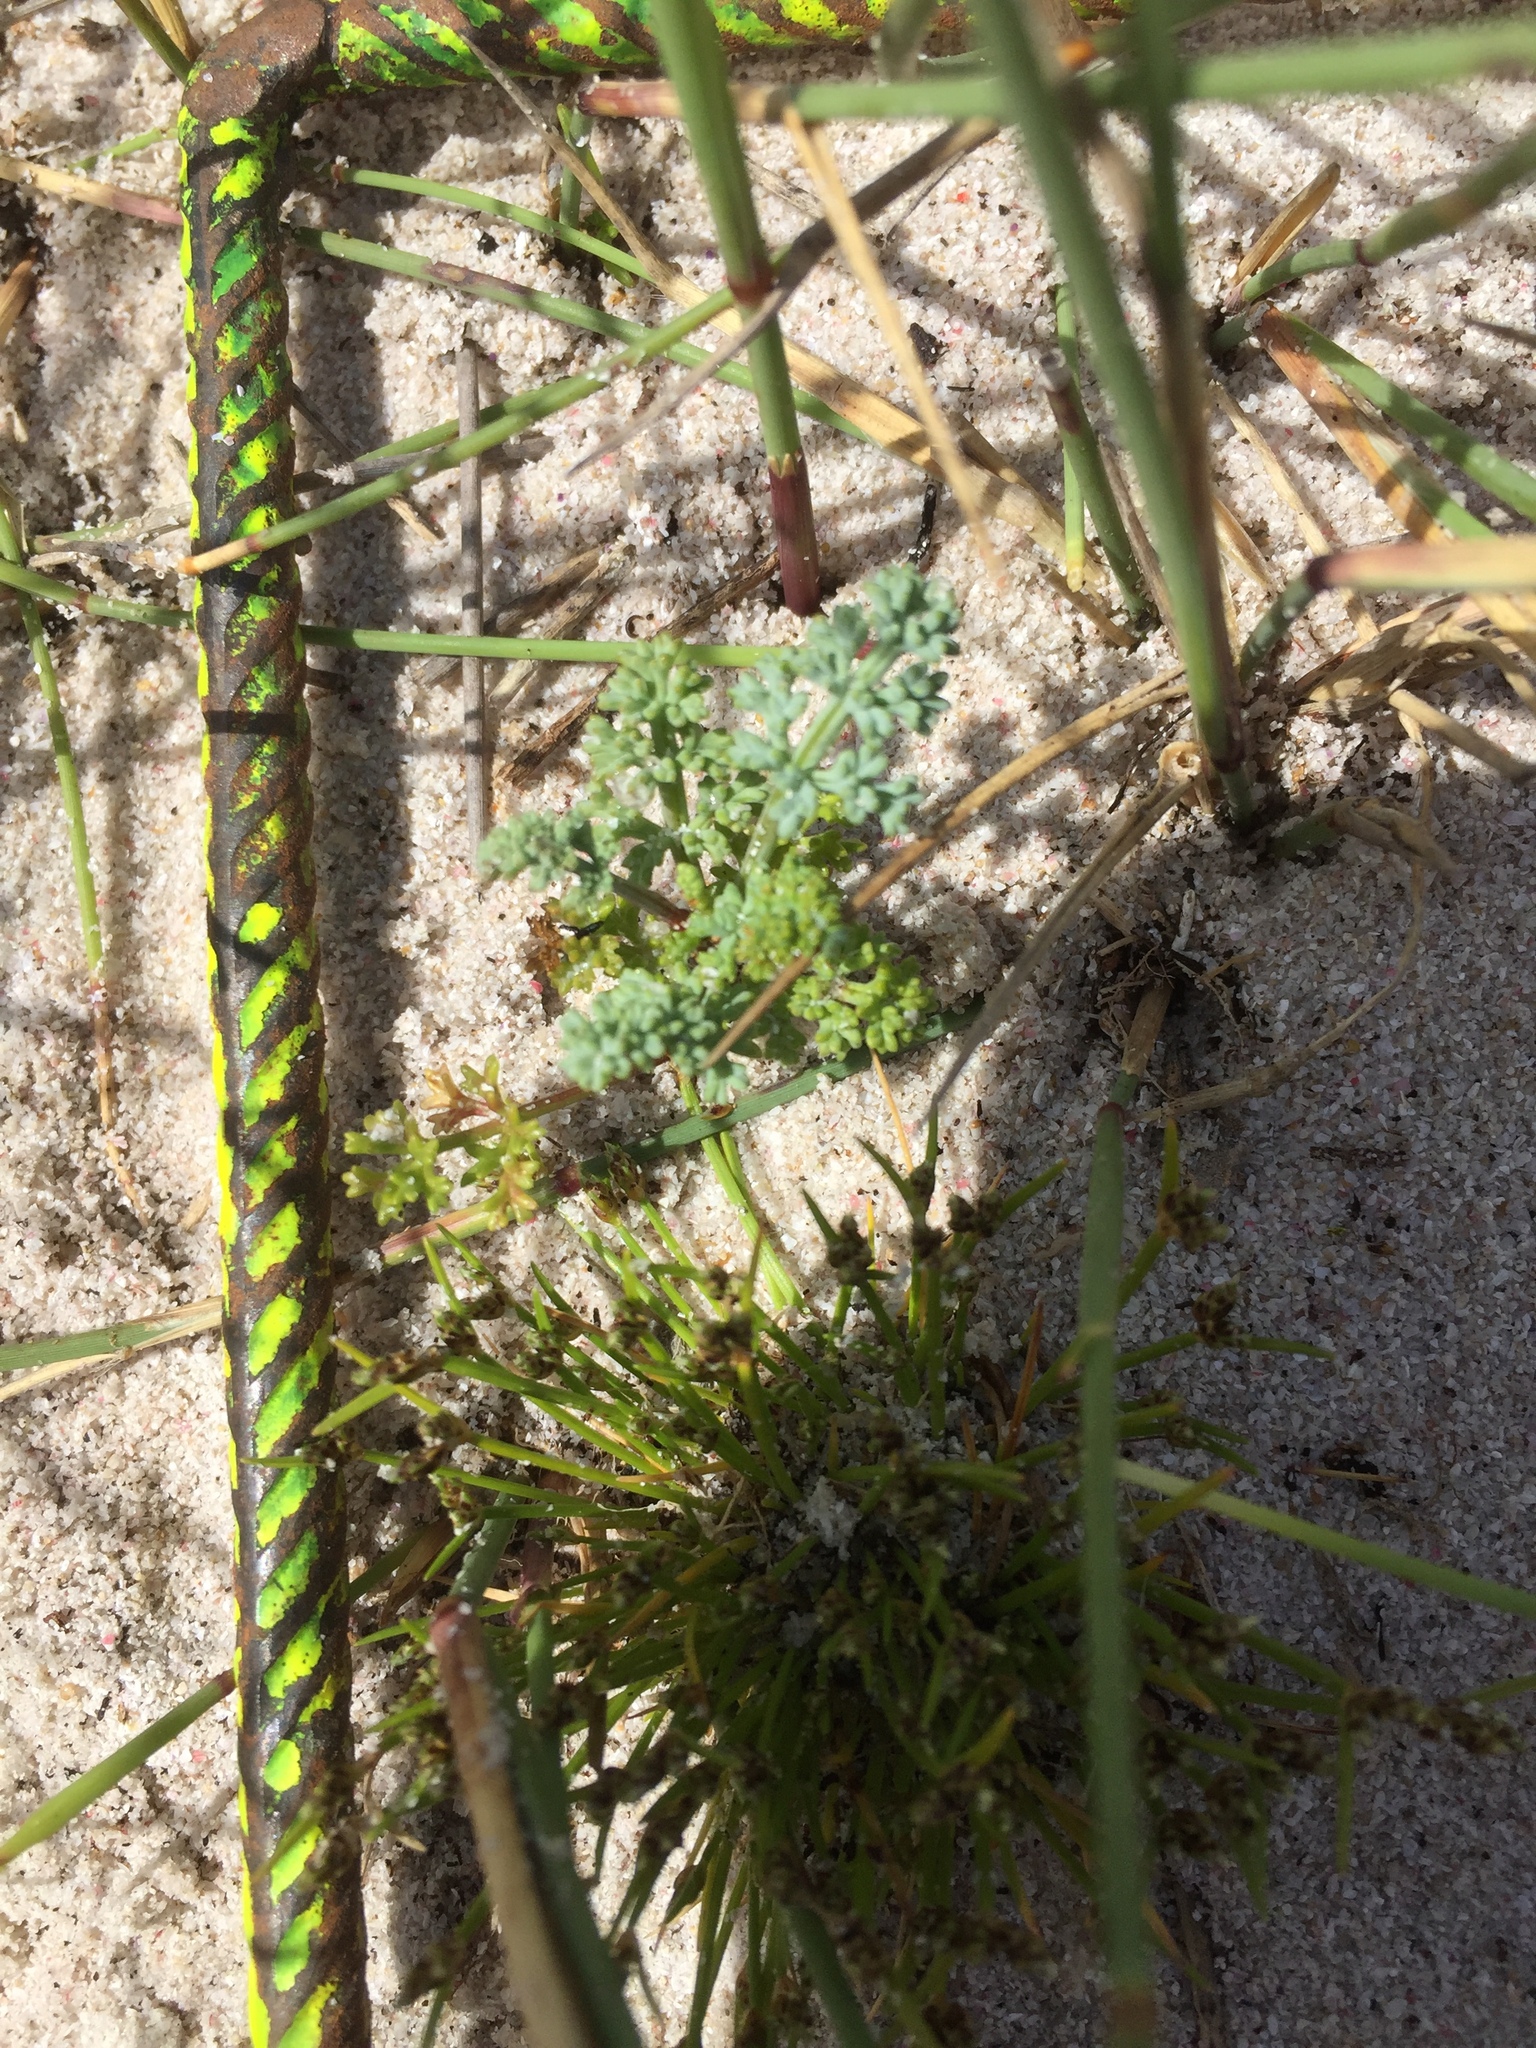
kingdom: Plantae
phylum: Tracheophyta
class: Magnoliopsida
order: Apiales
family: Apiaceae
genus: Dasispermum
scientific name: Dasispermum suffruticosum
